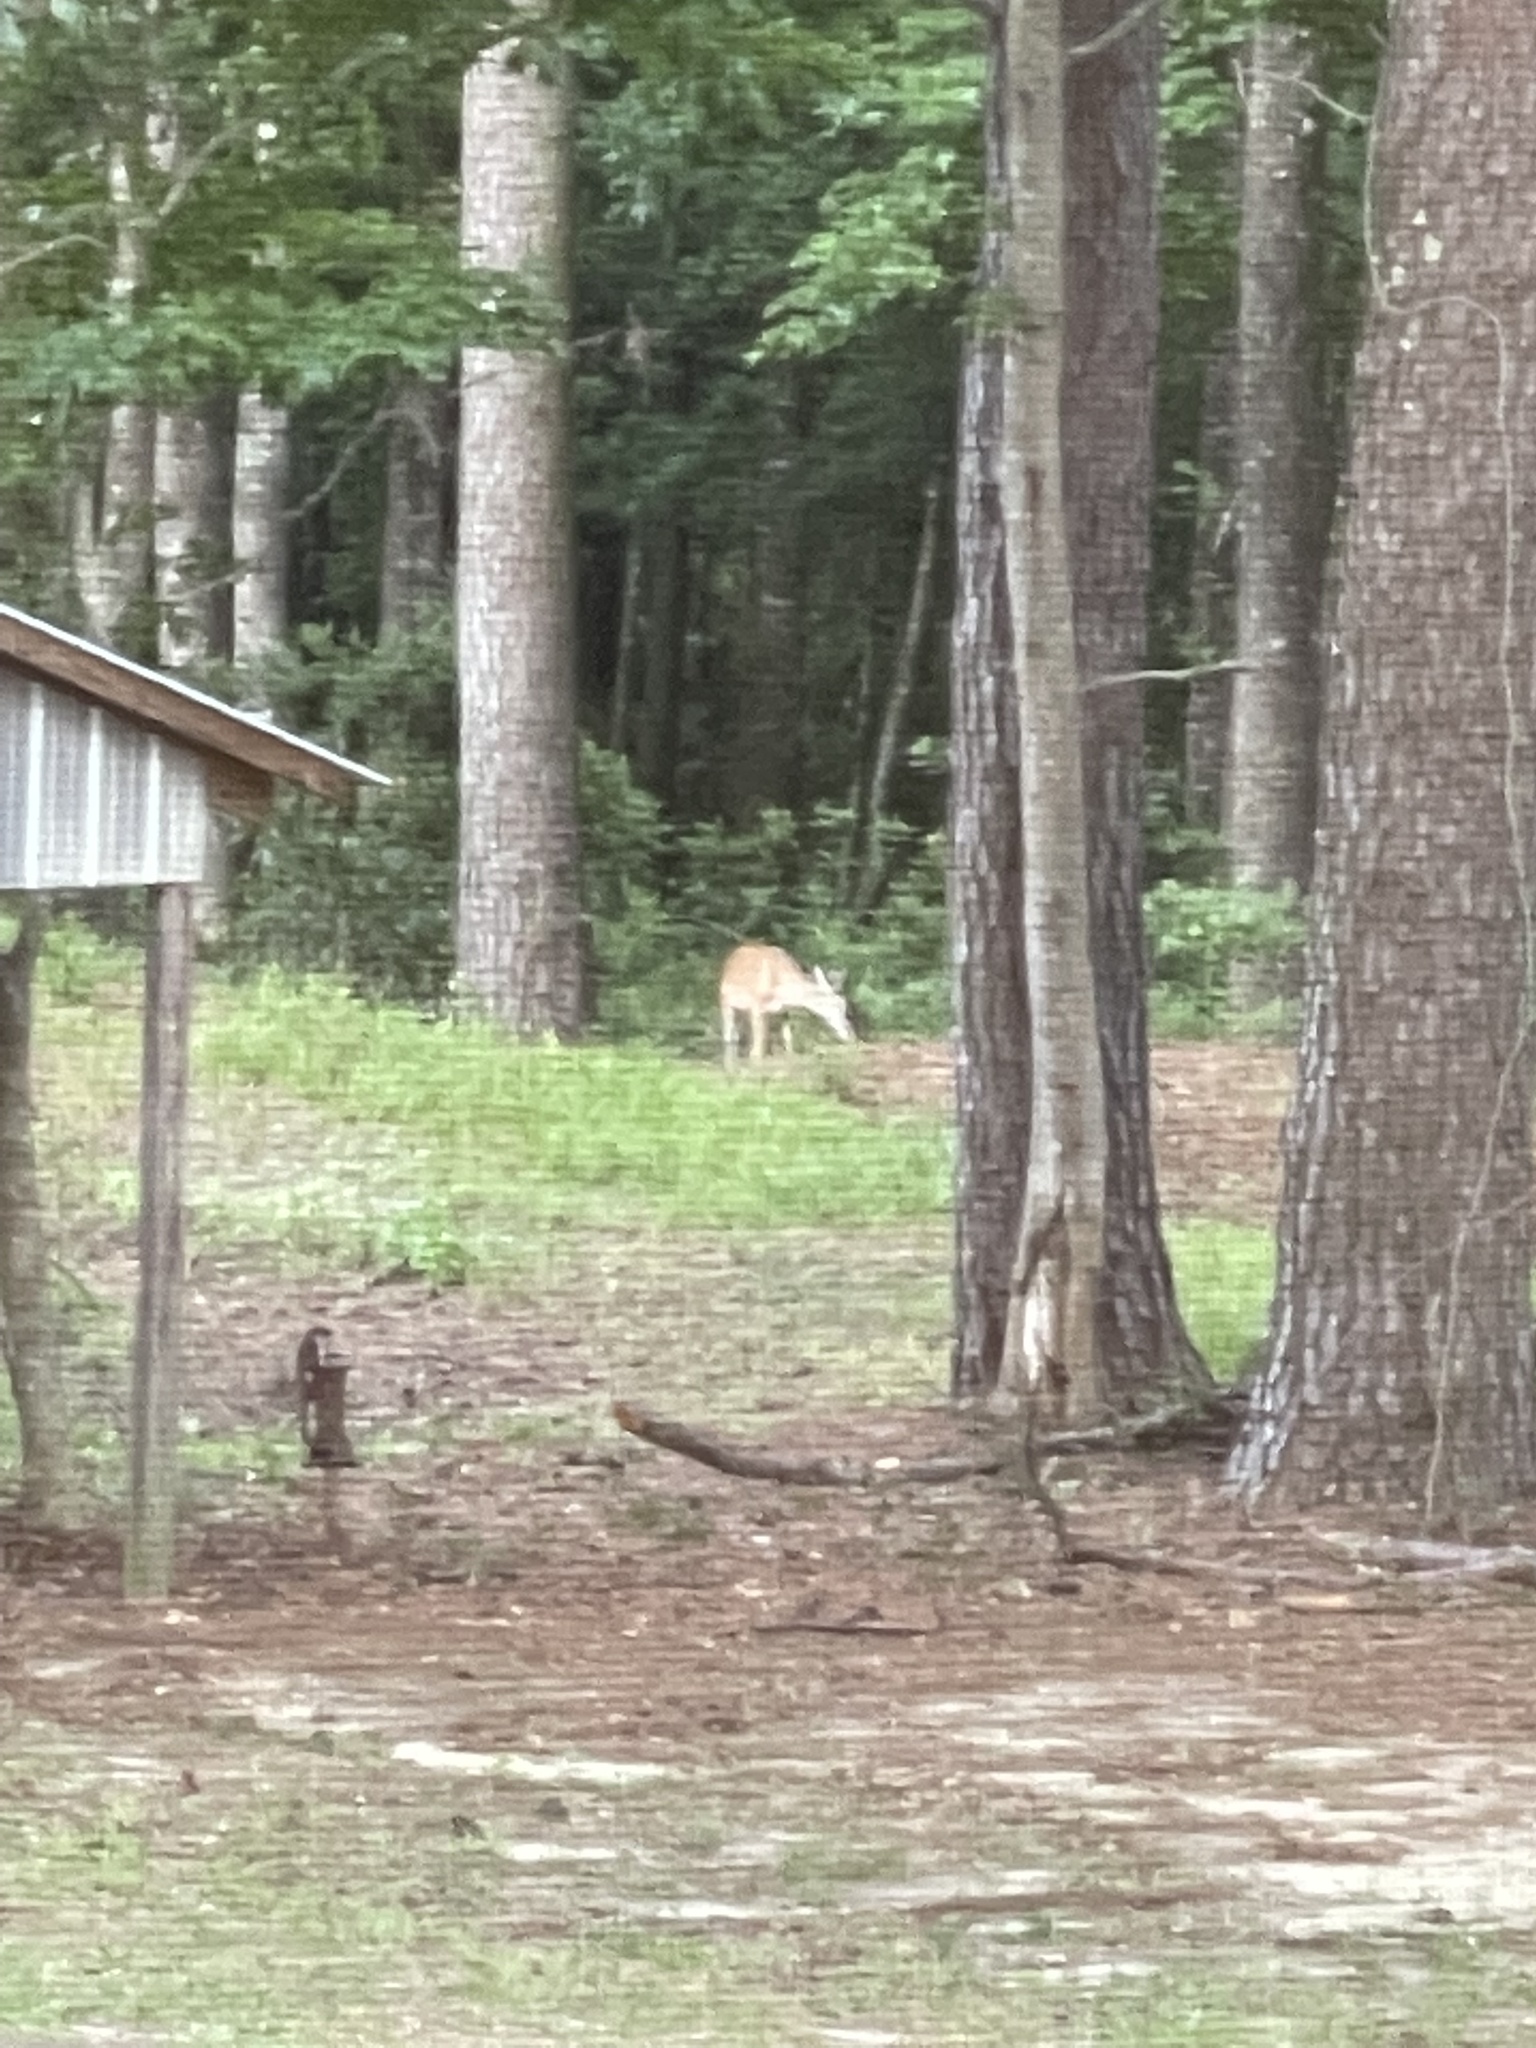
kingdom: Animalia
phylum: Chordata
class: Mammalia
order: Artiodactyla
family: Cervidae
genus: Odocoileus
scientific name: Odocoileus virginianus
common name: White-tailed deer
